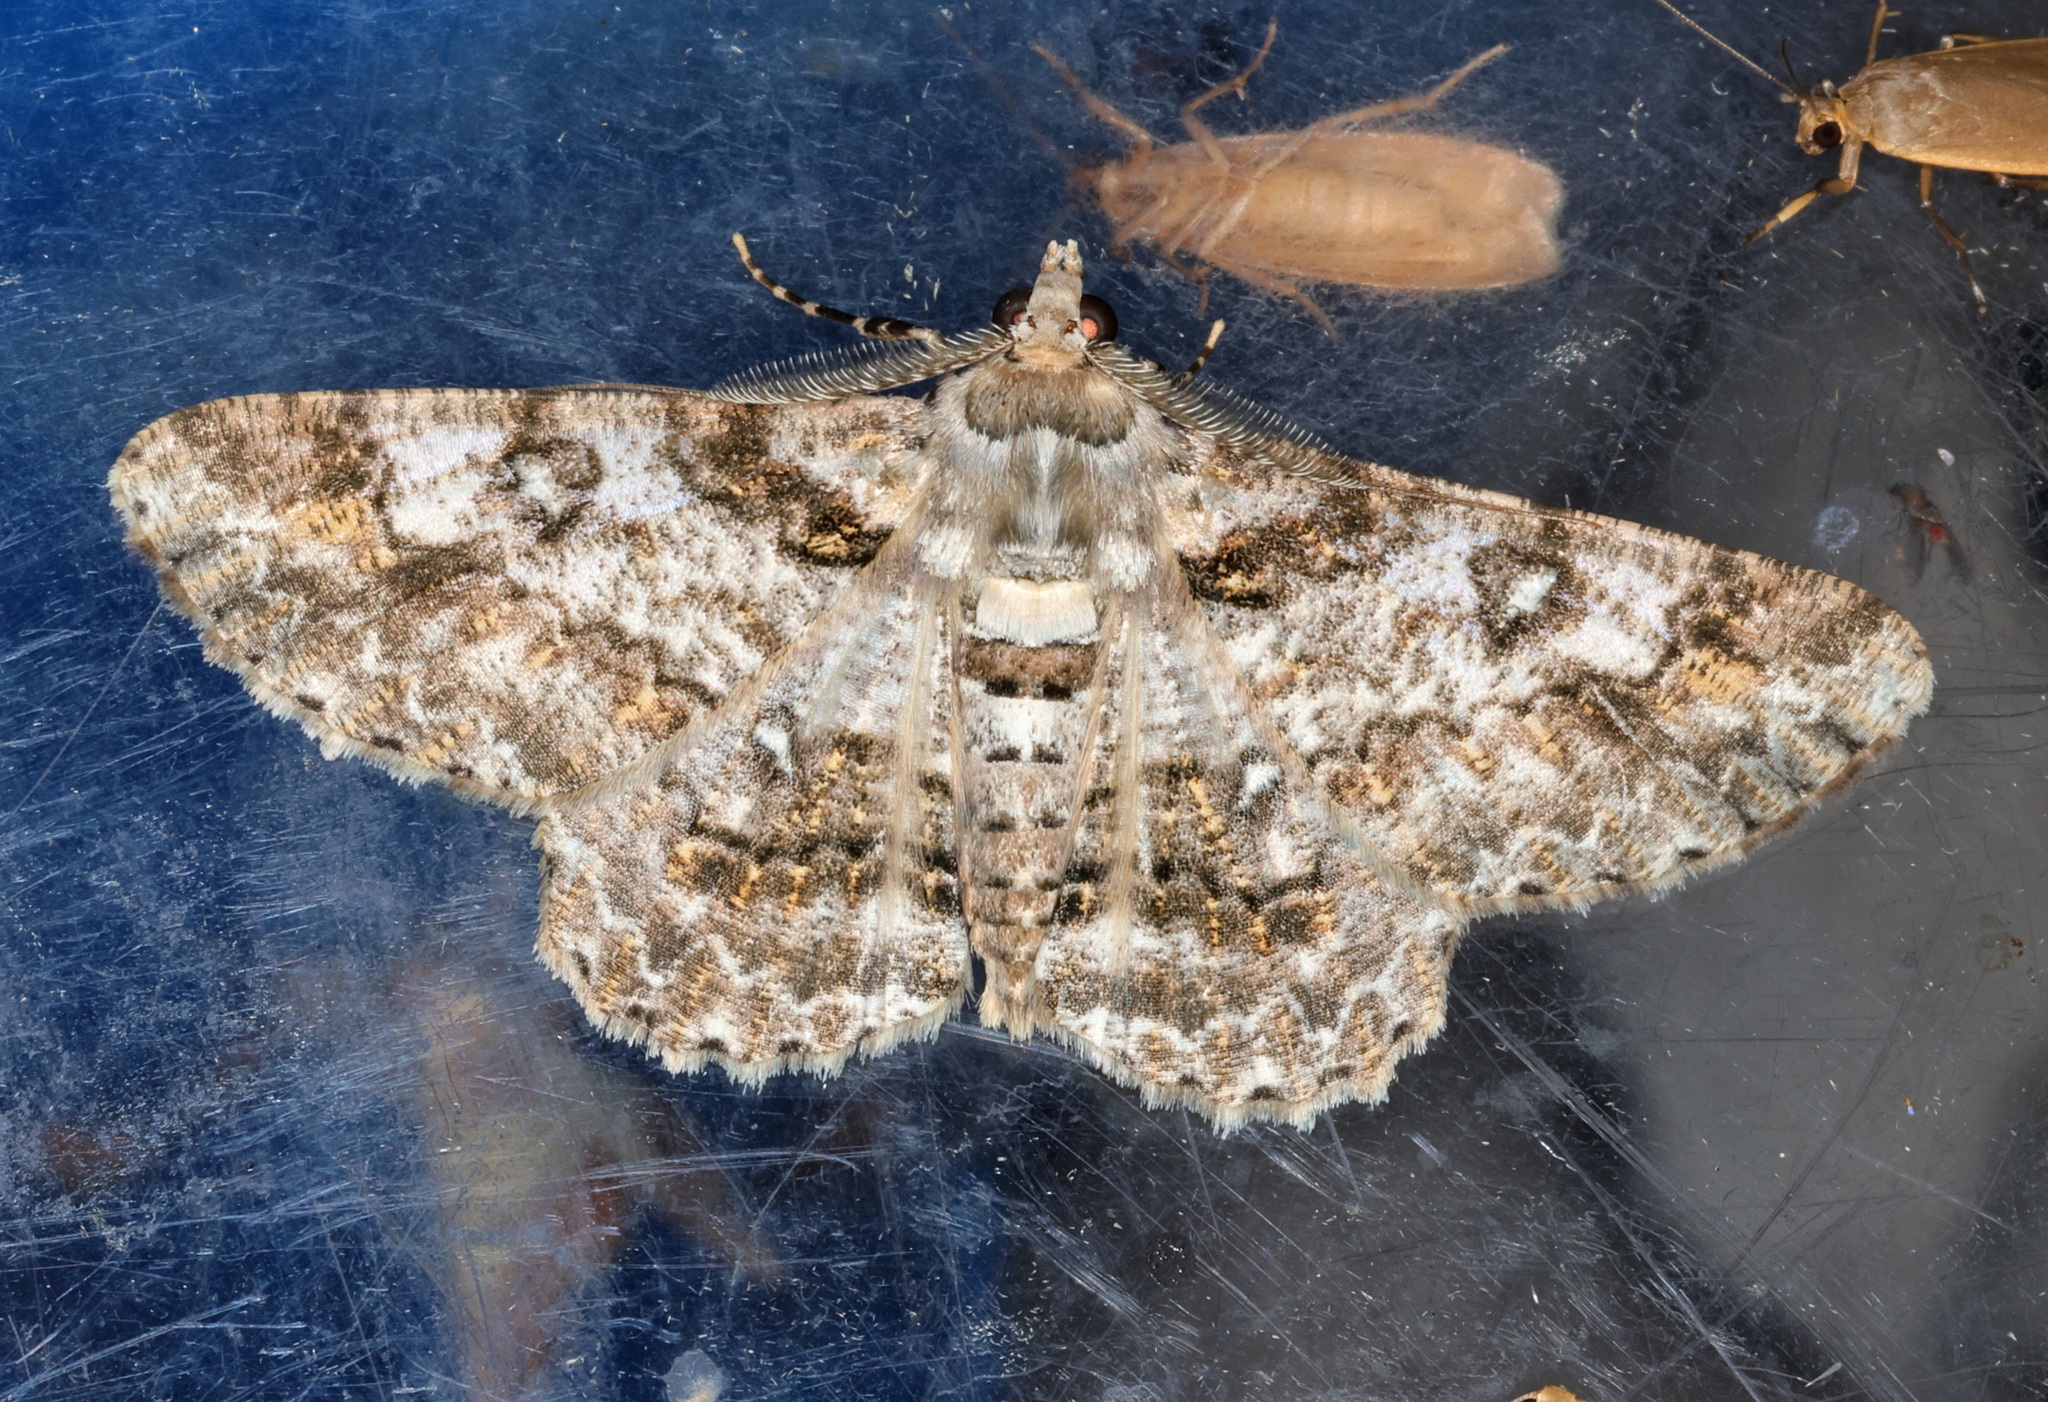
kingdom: Animalia
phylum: Arthropoda
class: Insecta
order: Lepidoptera
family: Geometridae
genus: Cleora
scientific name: Cleora alienaria
